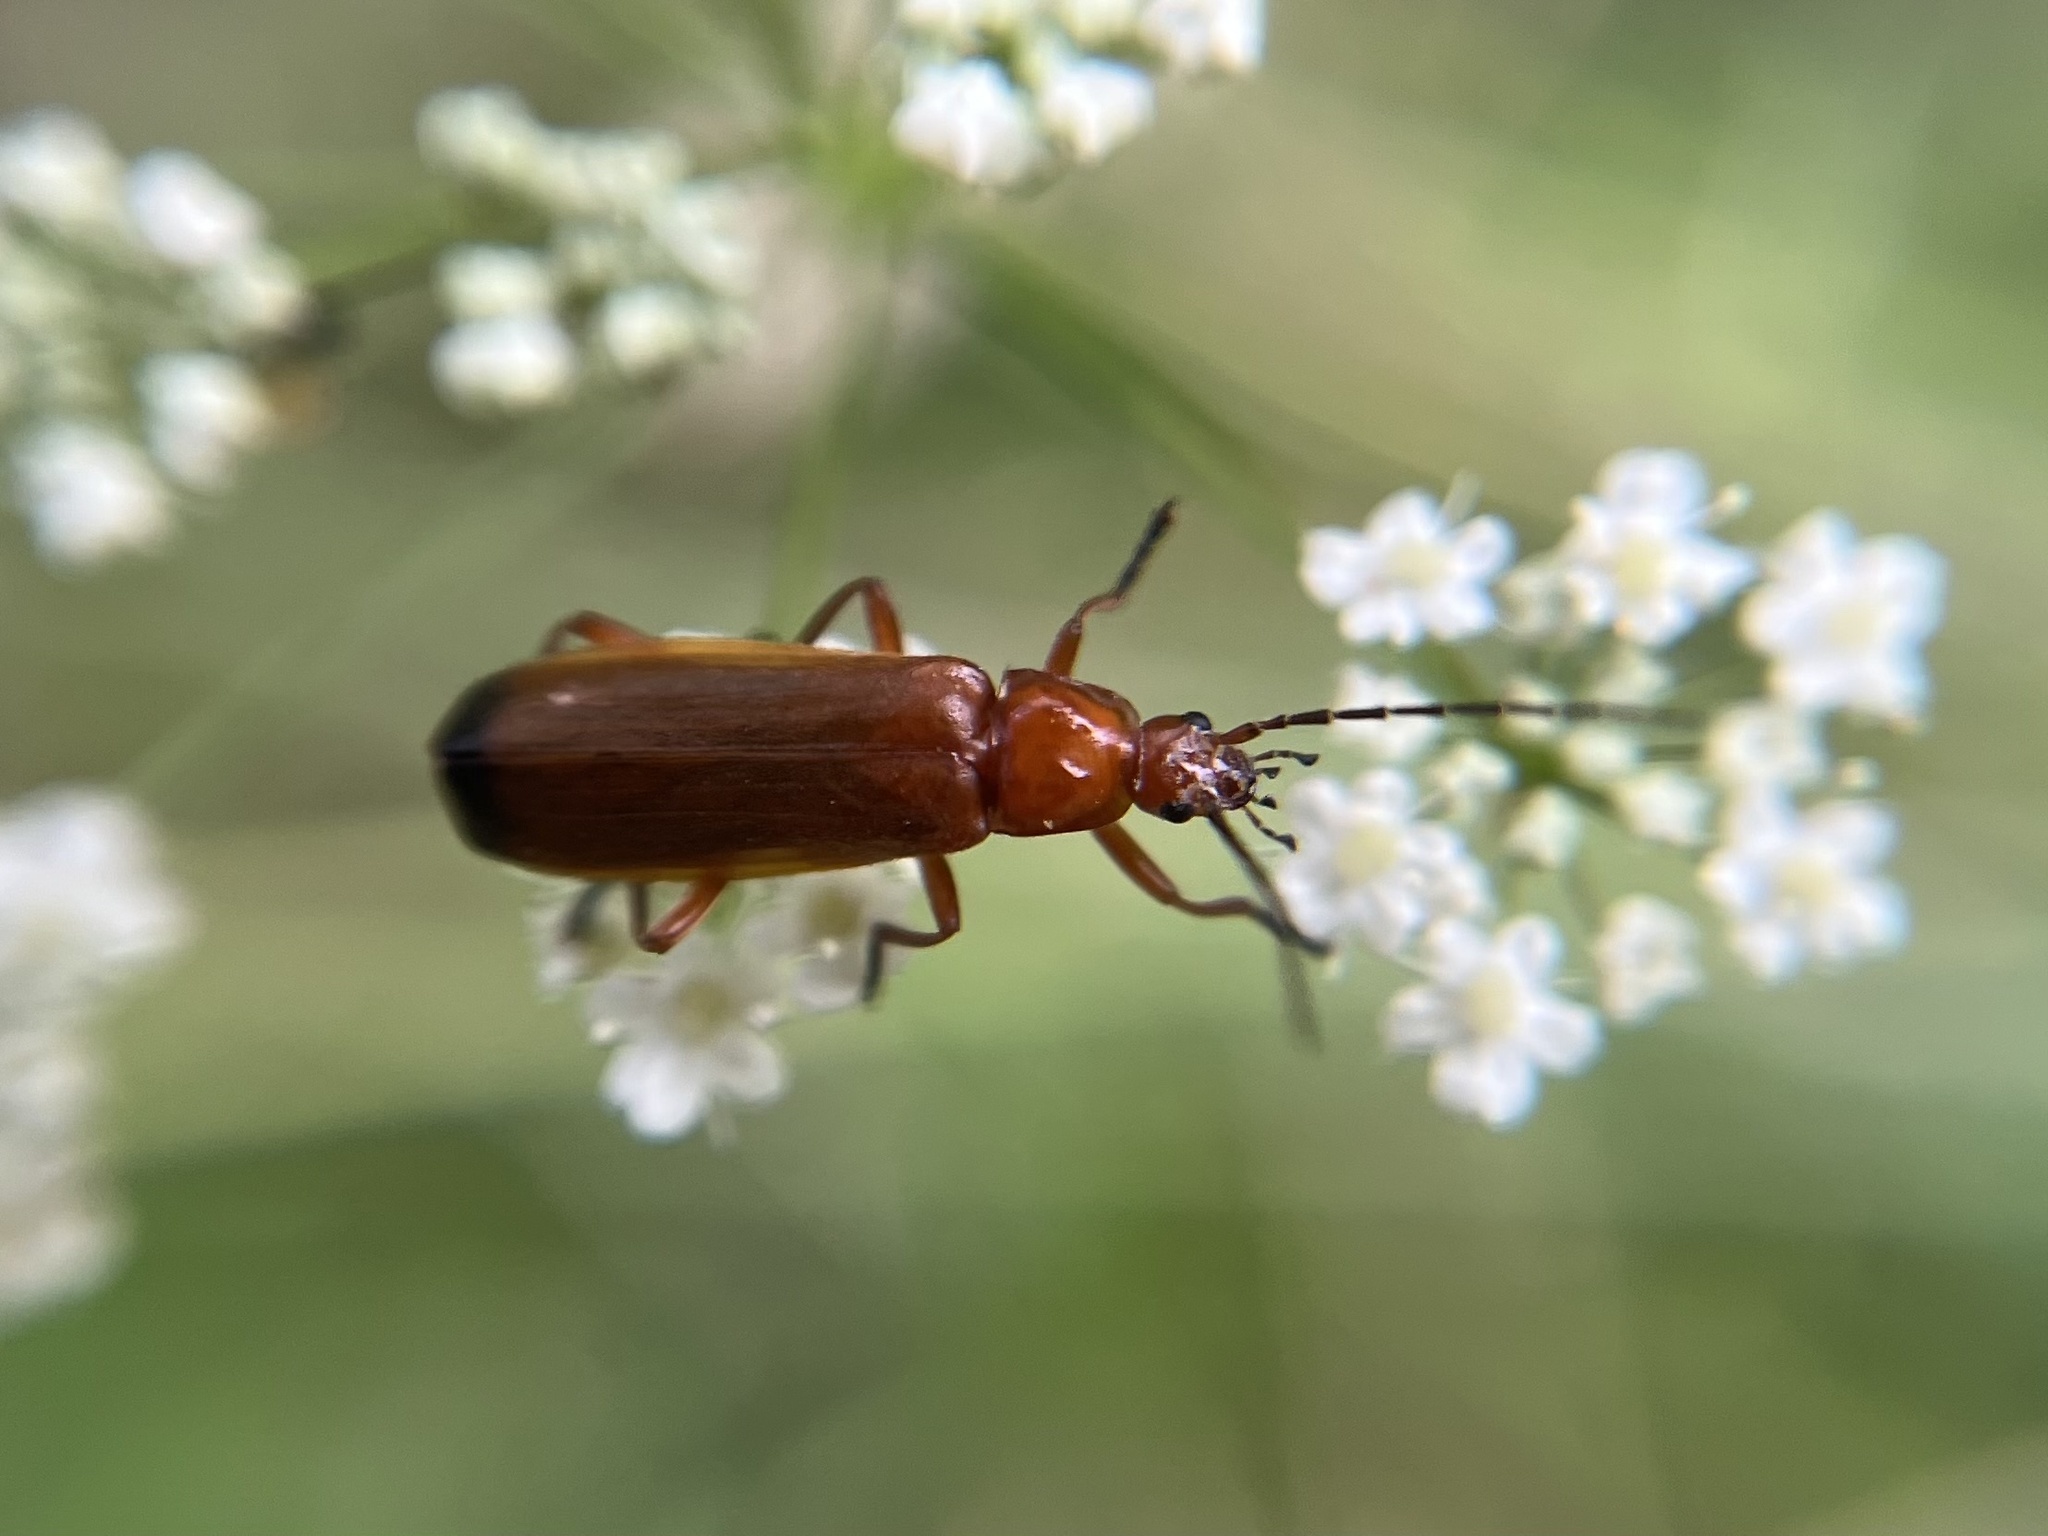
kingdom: Animalia
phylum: Arthropoda
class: Insecta
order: Coleoptera
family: Cantharidae
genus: Rhagonycha
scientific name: Rhagonycha fulva
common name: Common red soldier beetle
